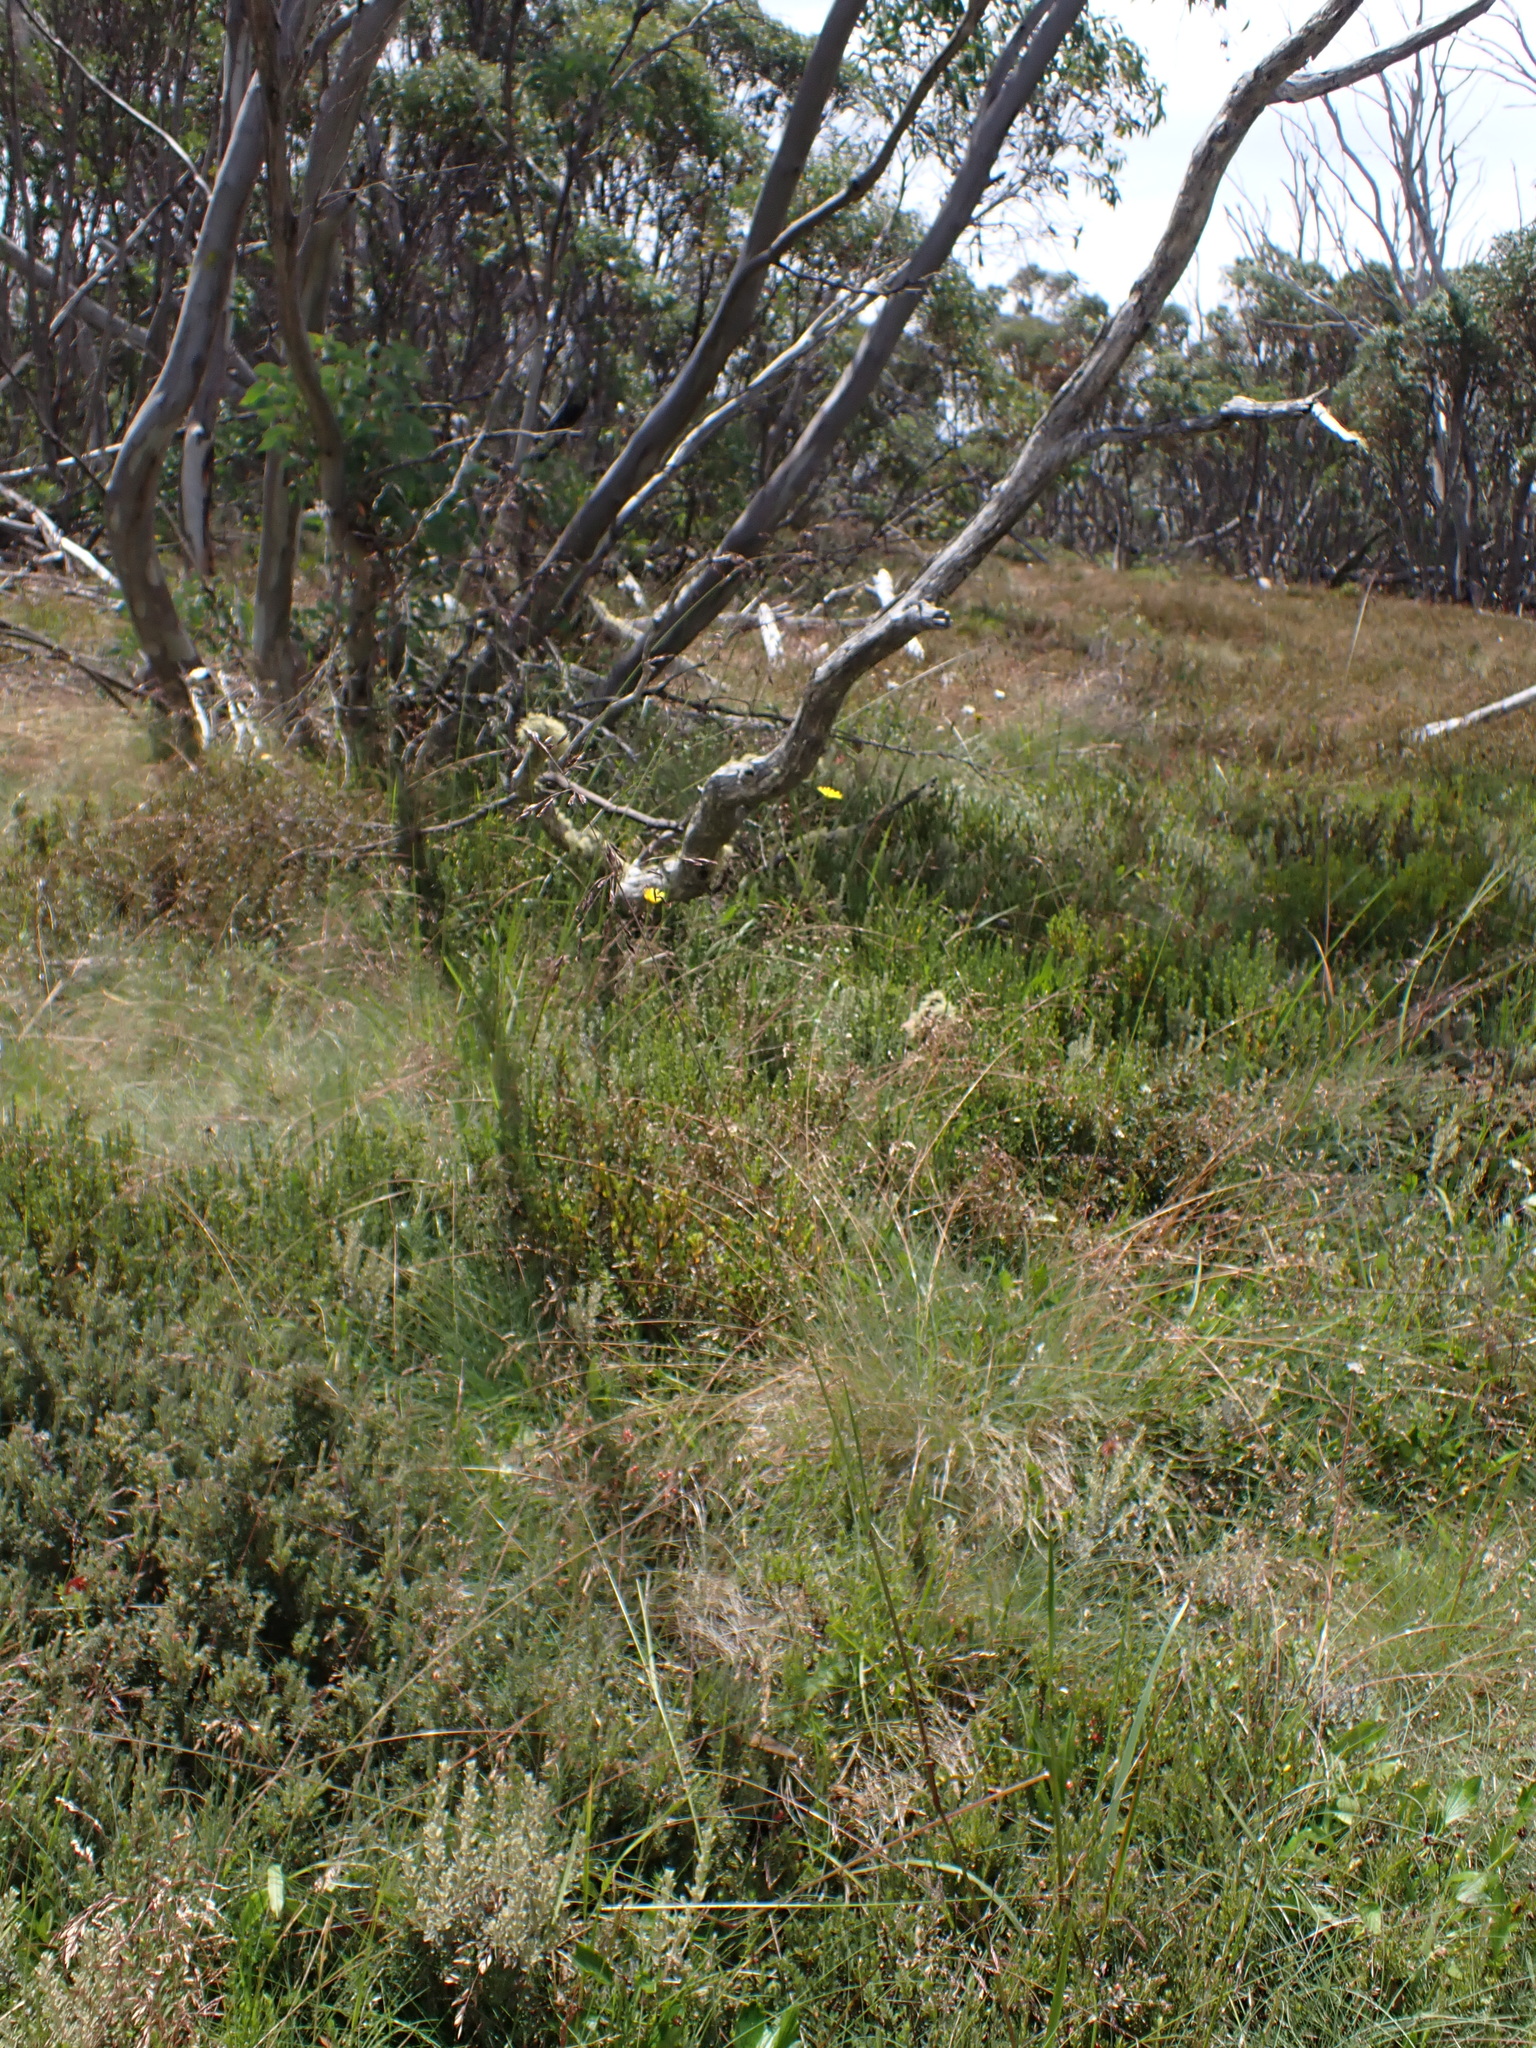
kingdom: Plantae
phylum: Tracheophyta
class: Liliopsida
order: Poales
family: Poaceae
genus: Festuca
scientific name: Festuca muelleri
